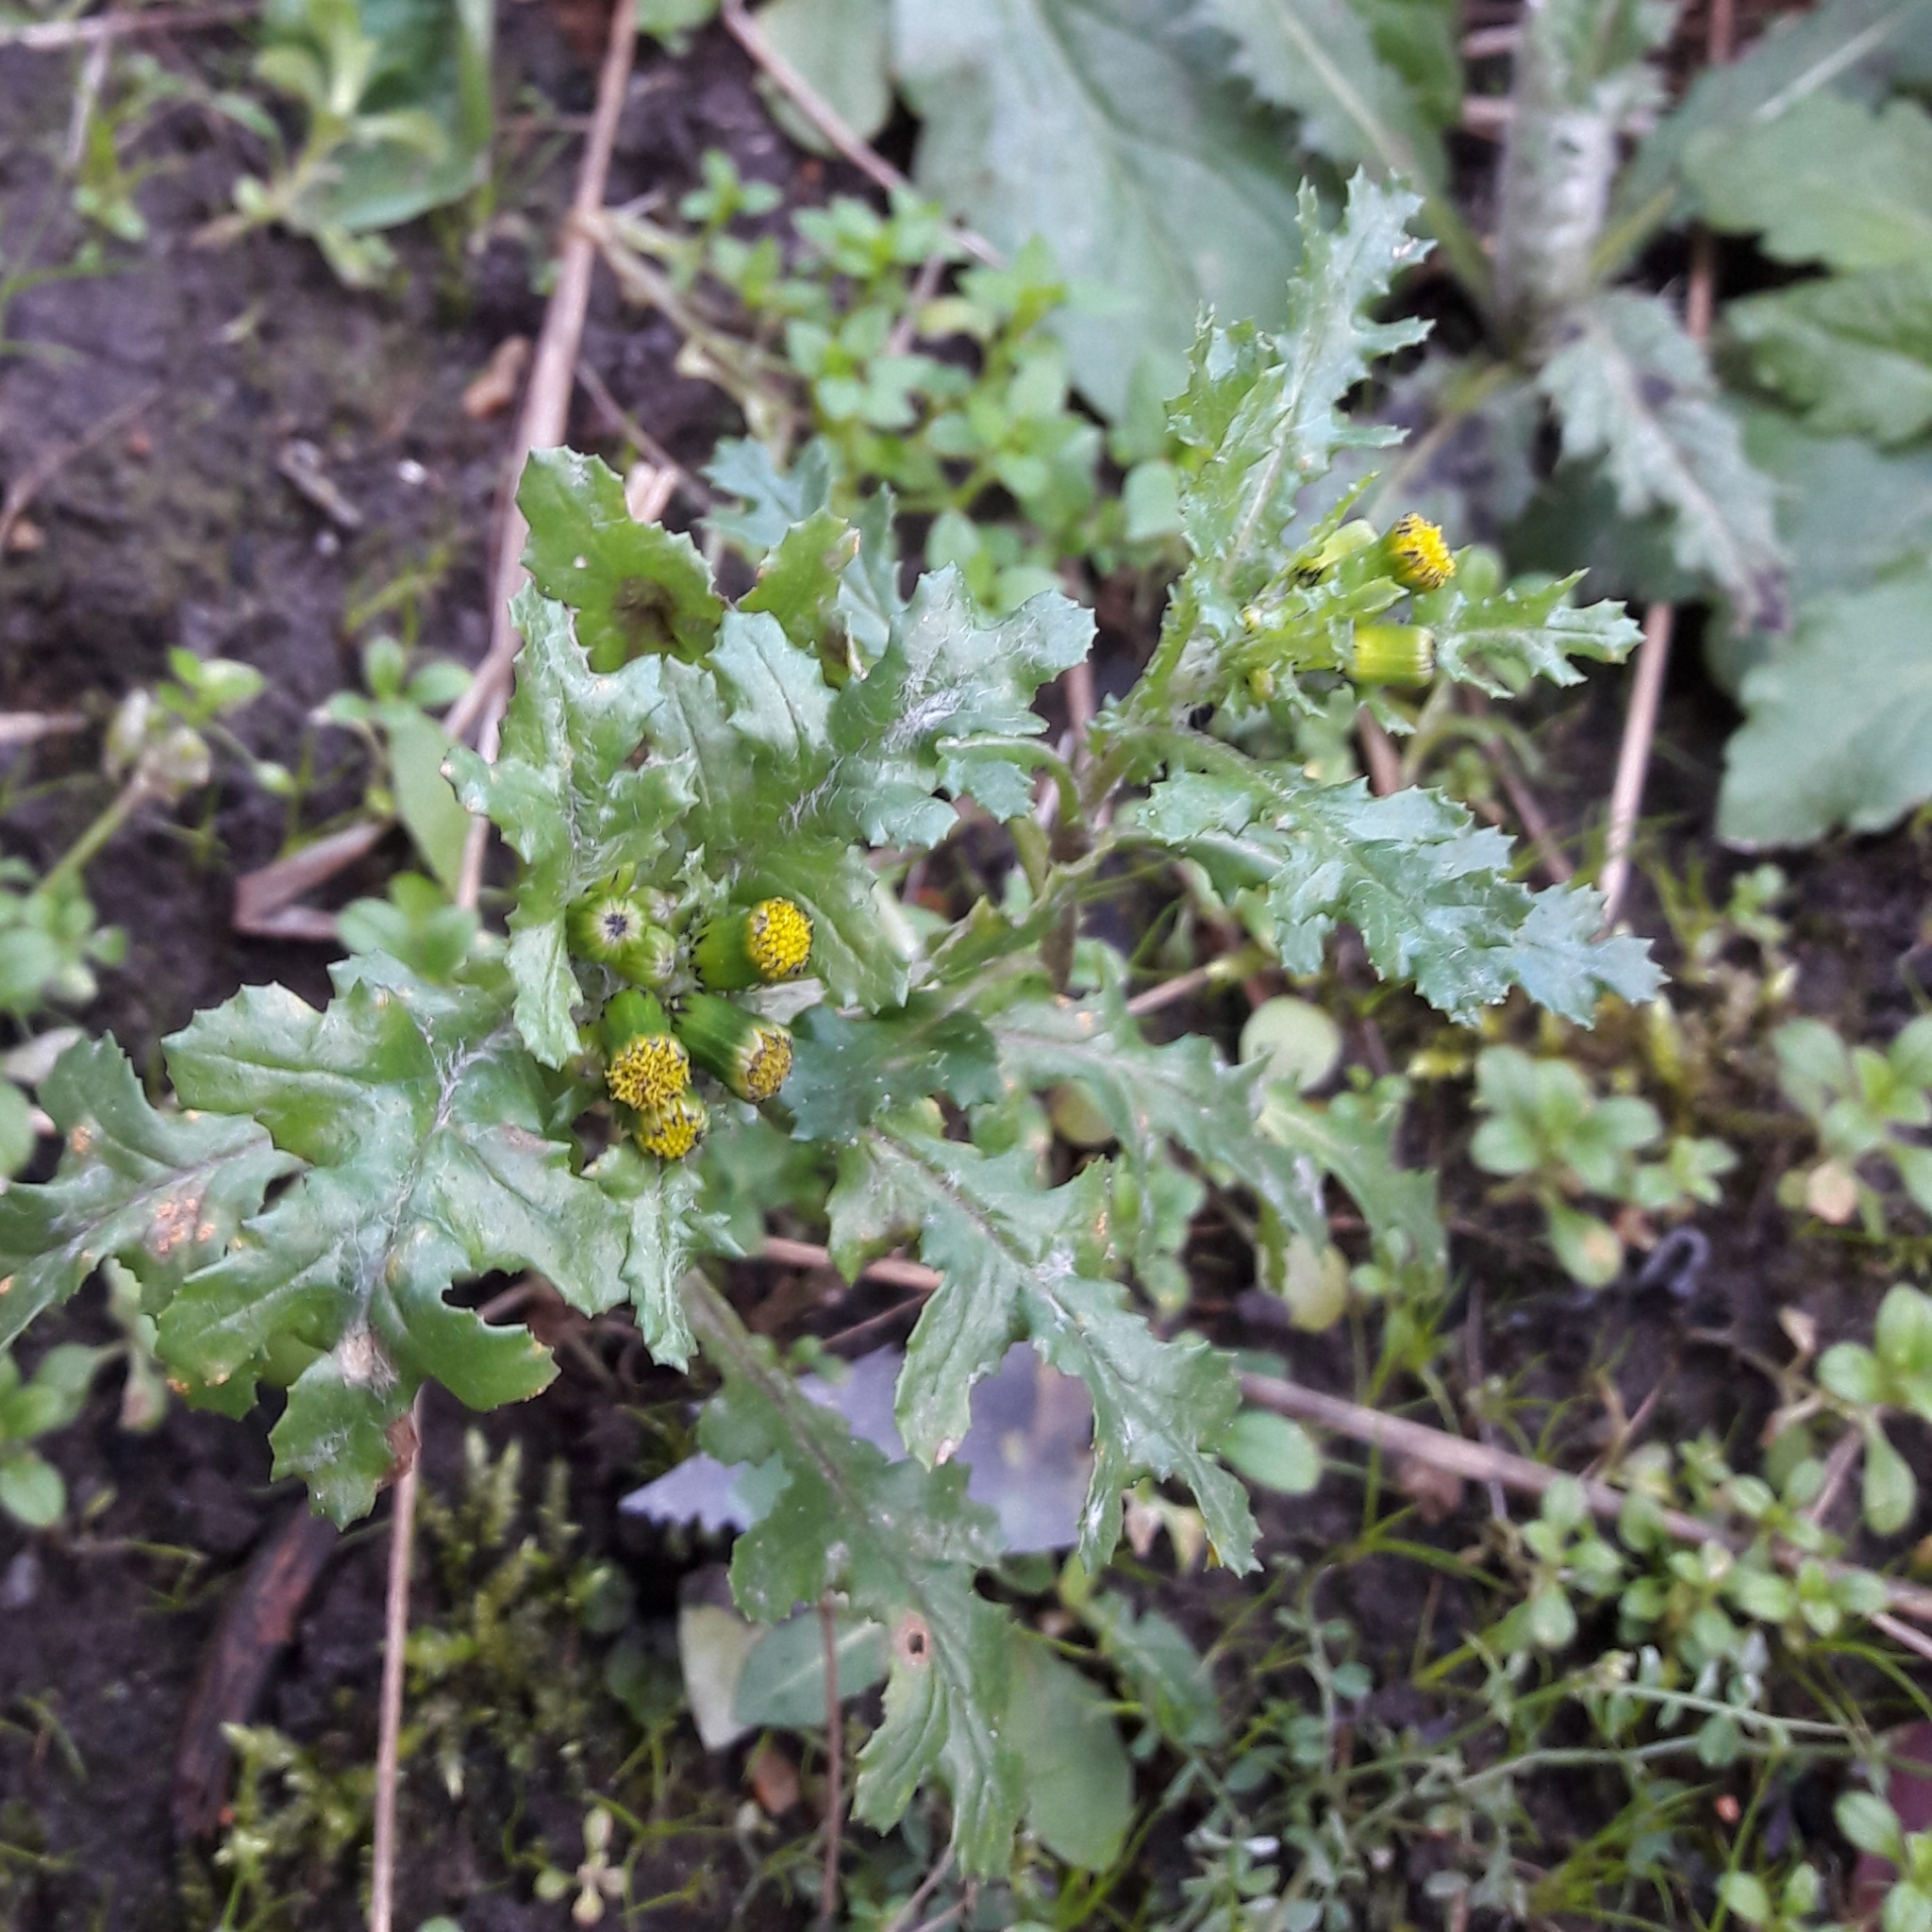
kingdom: Plantae
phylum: Tracheophyta
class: Magnoliopsida
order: Asterales
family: Asteraceae
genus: Senecio
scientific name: Senecio vulgaris
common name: Old-man-in-the-spring
